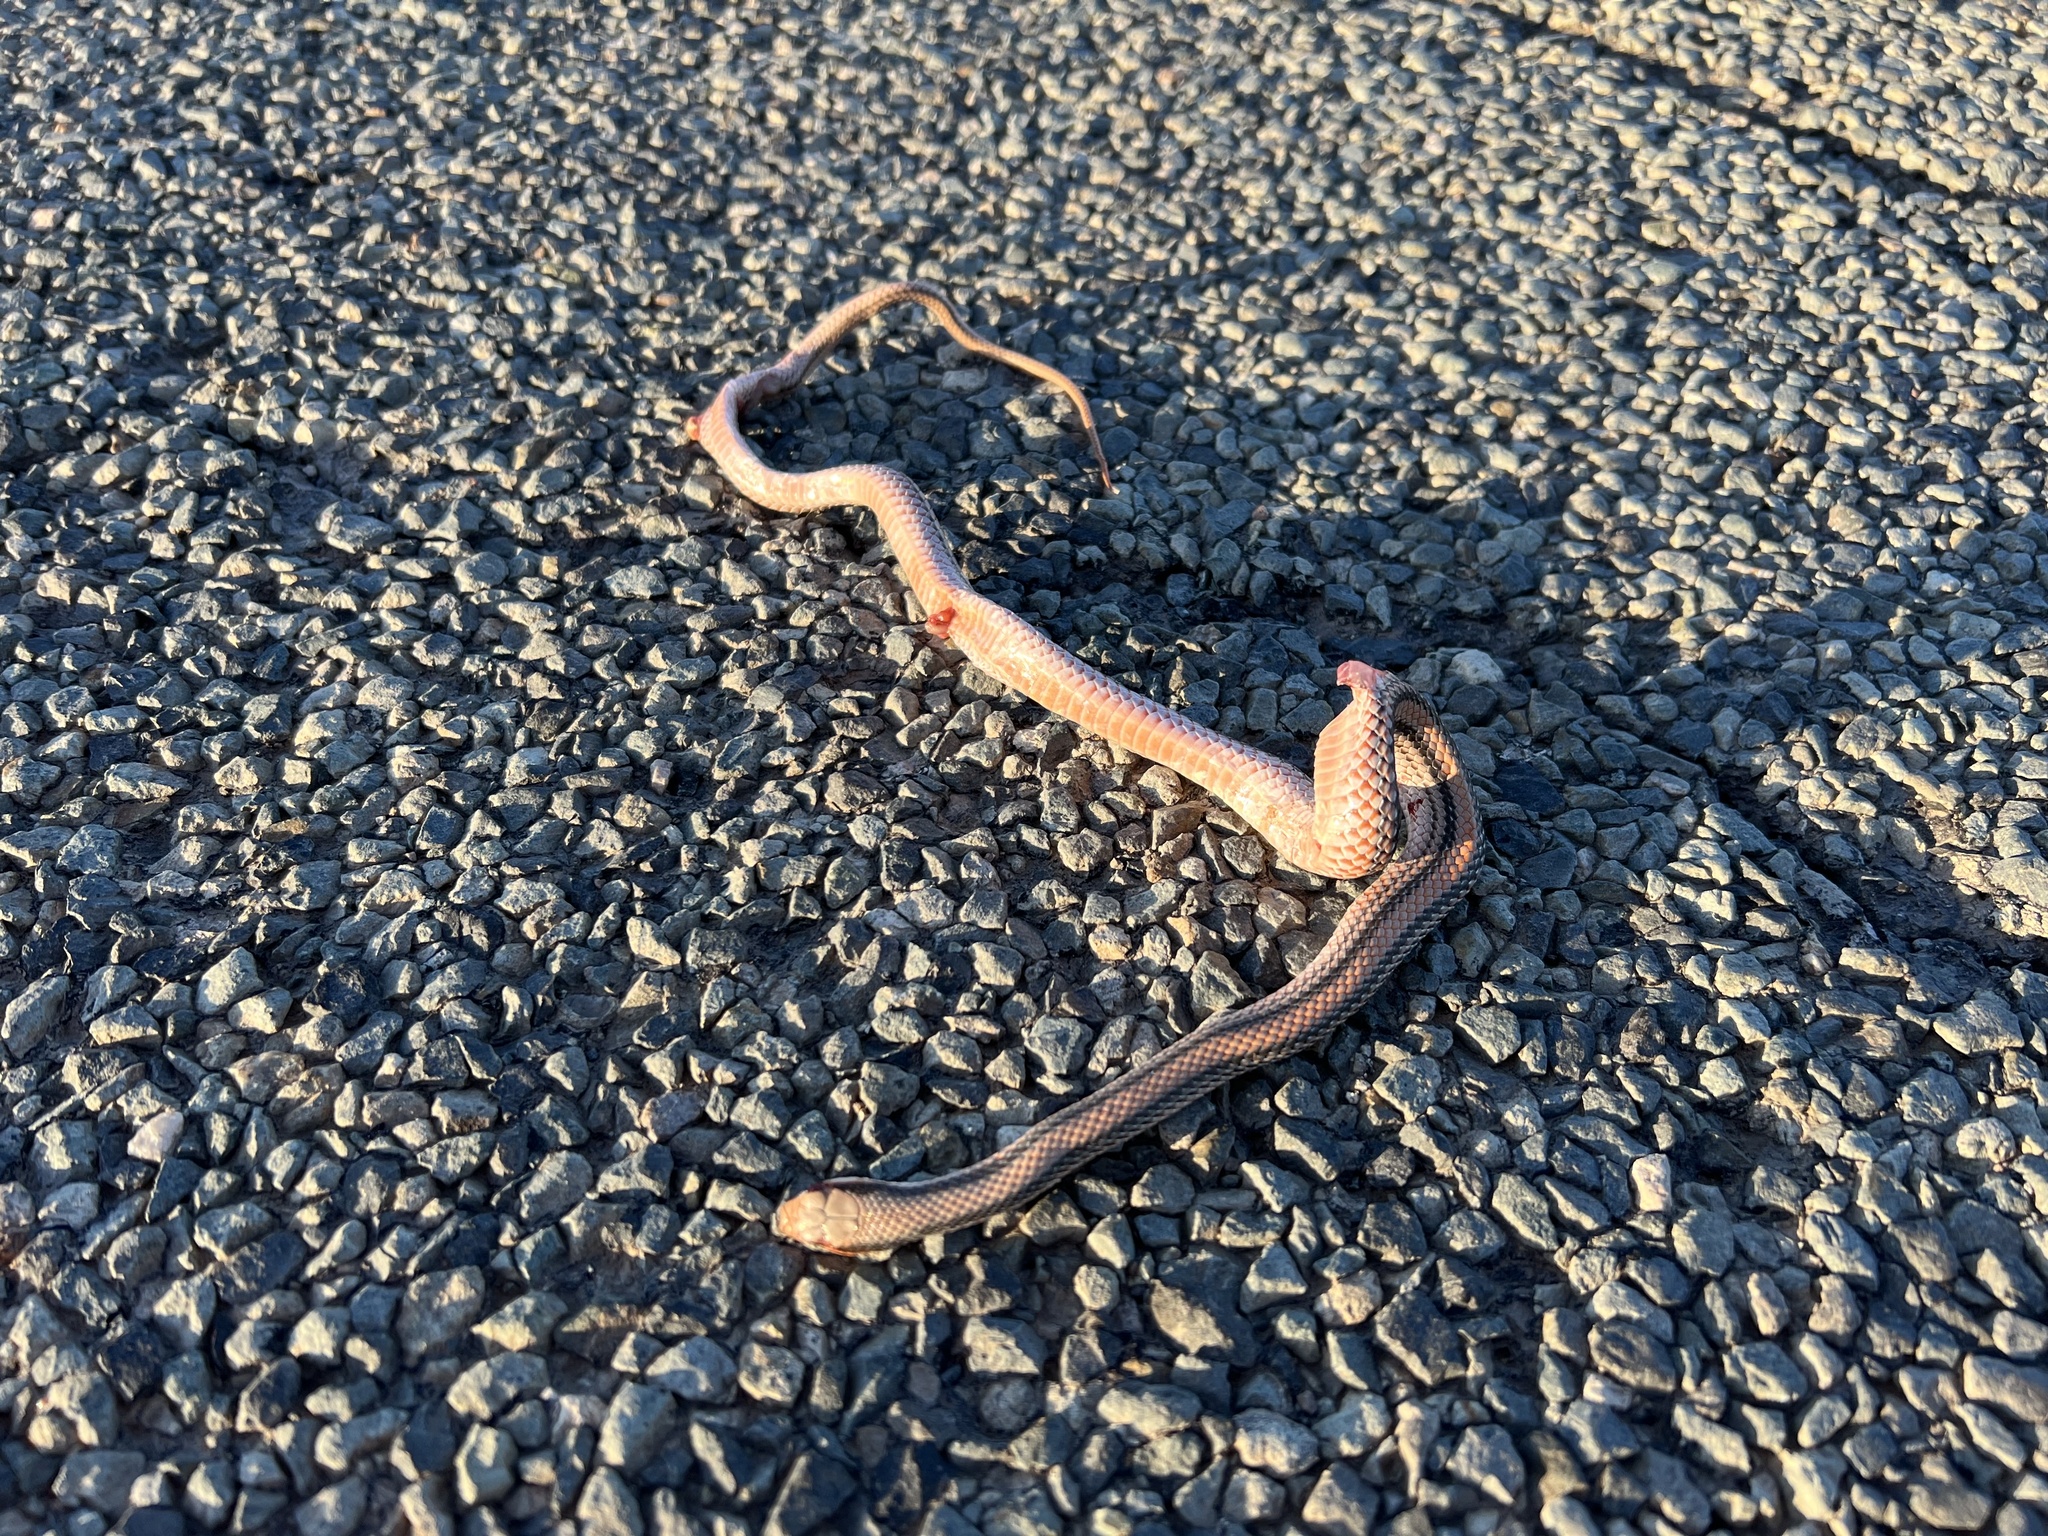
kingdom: Animalia
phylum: Chordata
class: Squamata
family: Colubridae
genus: Salvadora
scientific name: Salvadora deserticola
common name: Big bend patchnose snake
